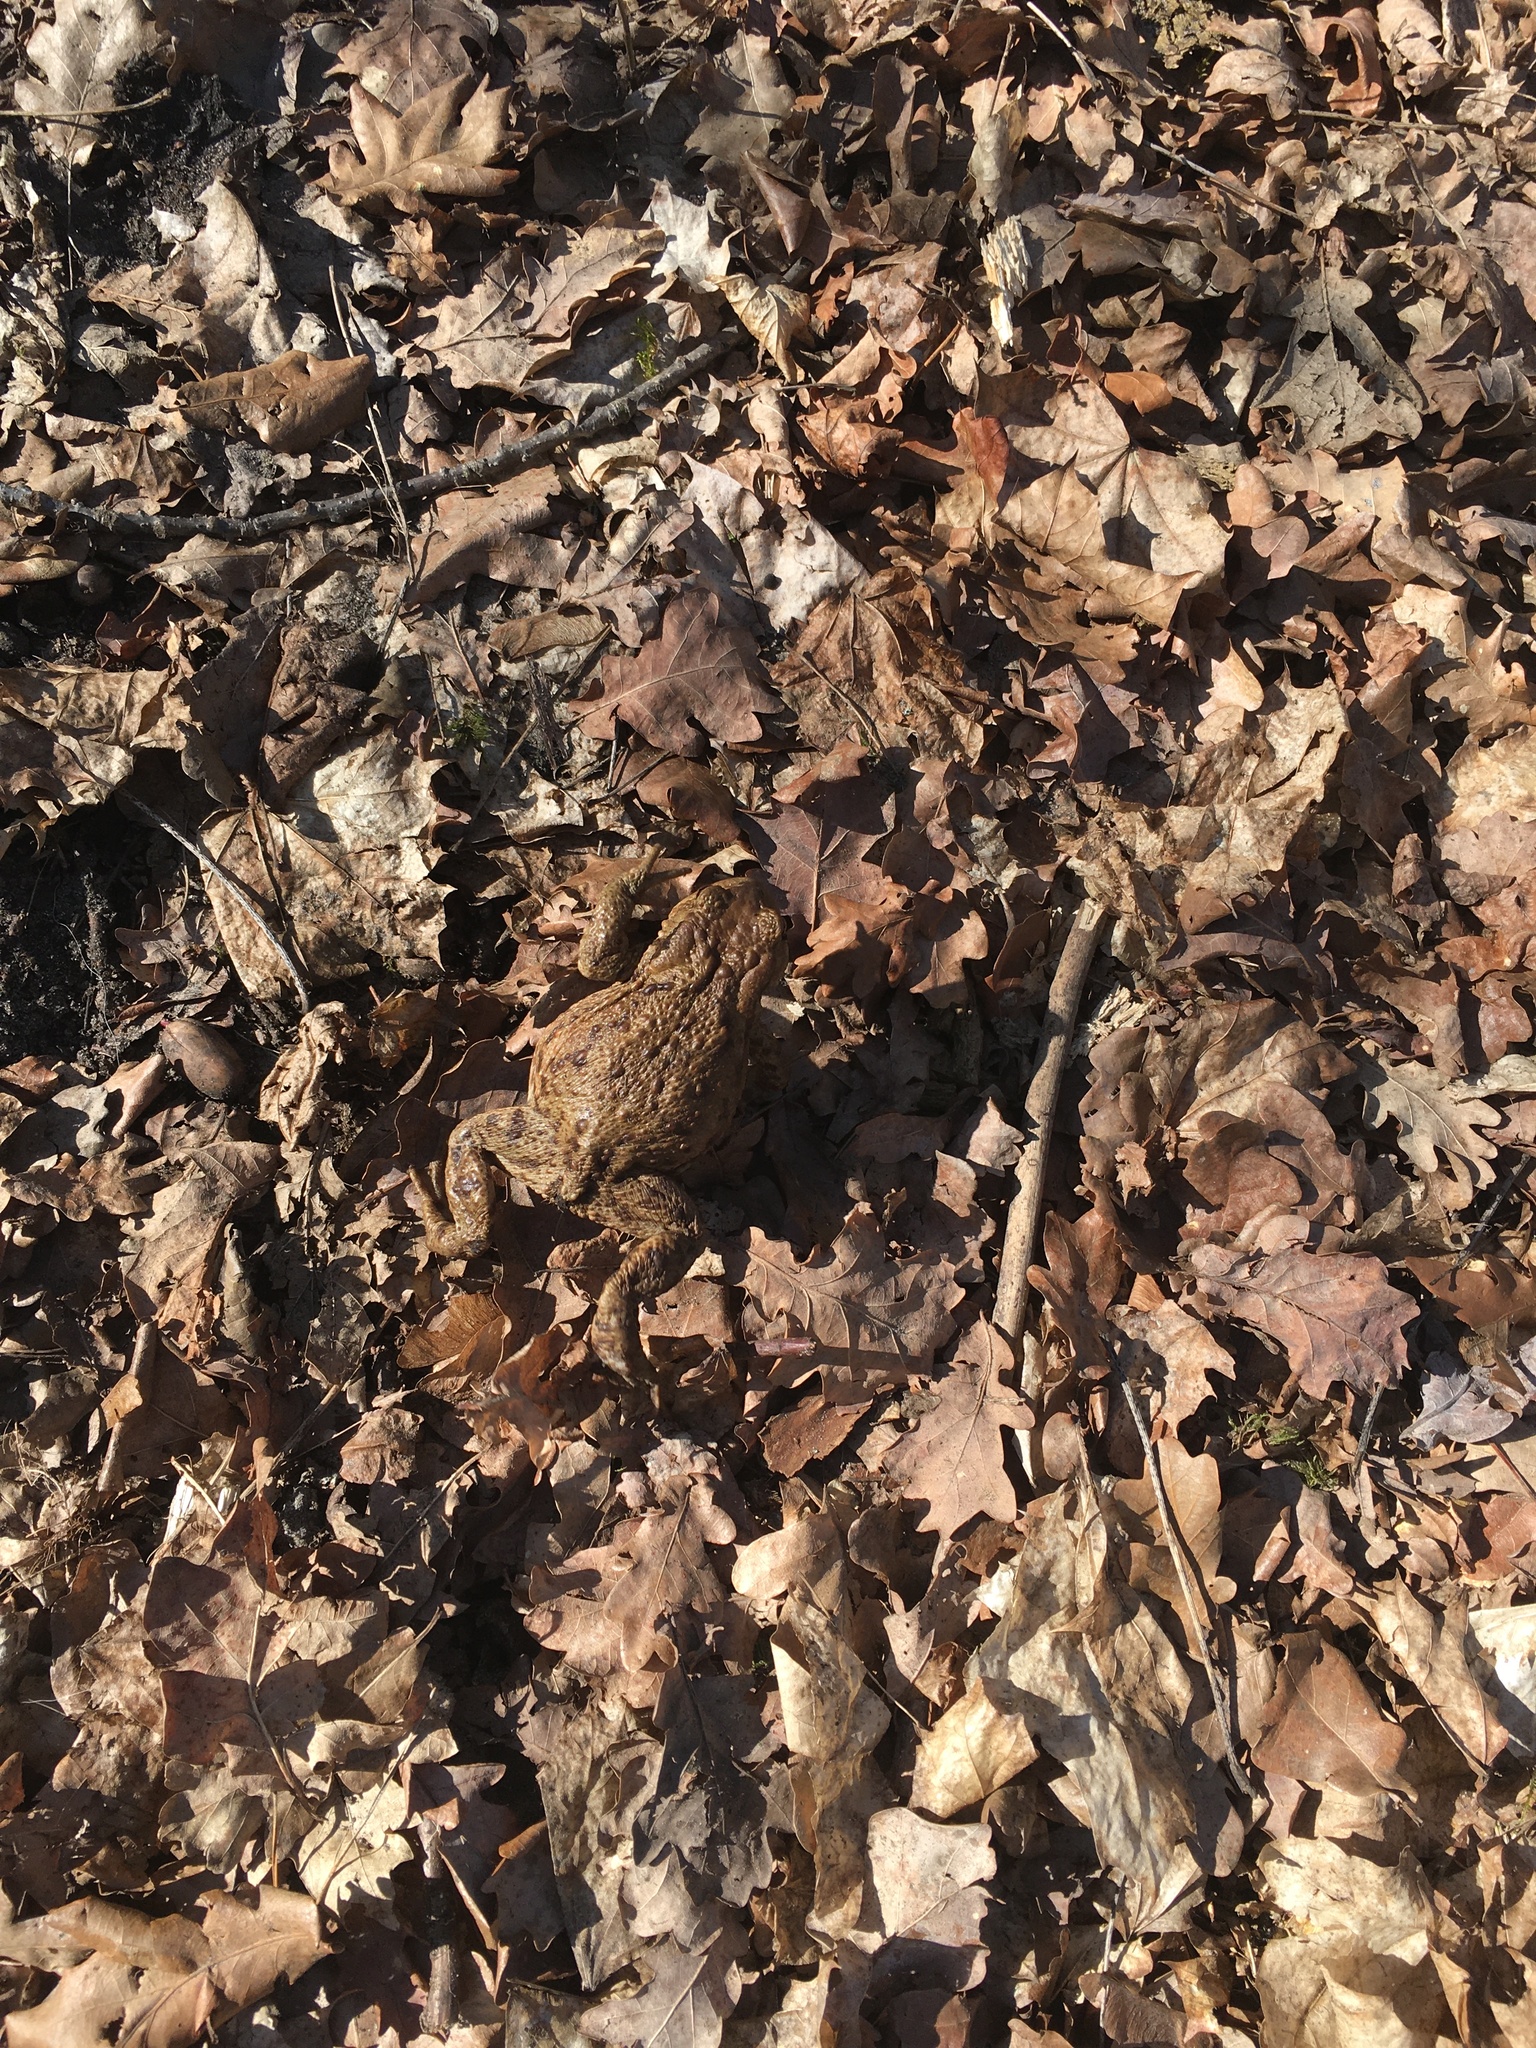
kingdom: Animalia
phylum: Chordata
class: Amphibia
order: Anura
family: Bufonidae
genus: Bufo
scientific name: Bufo bufo
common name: Common toad
